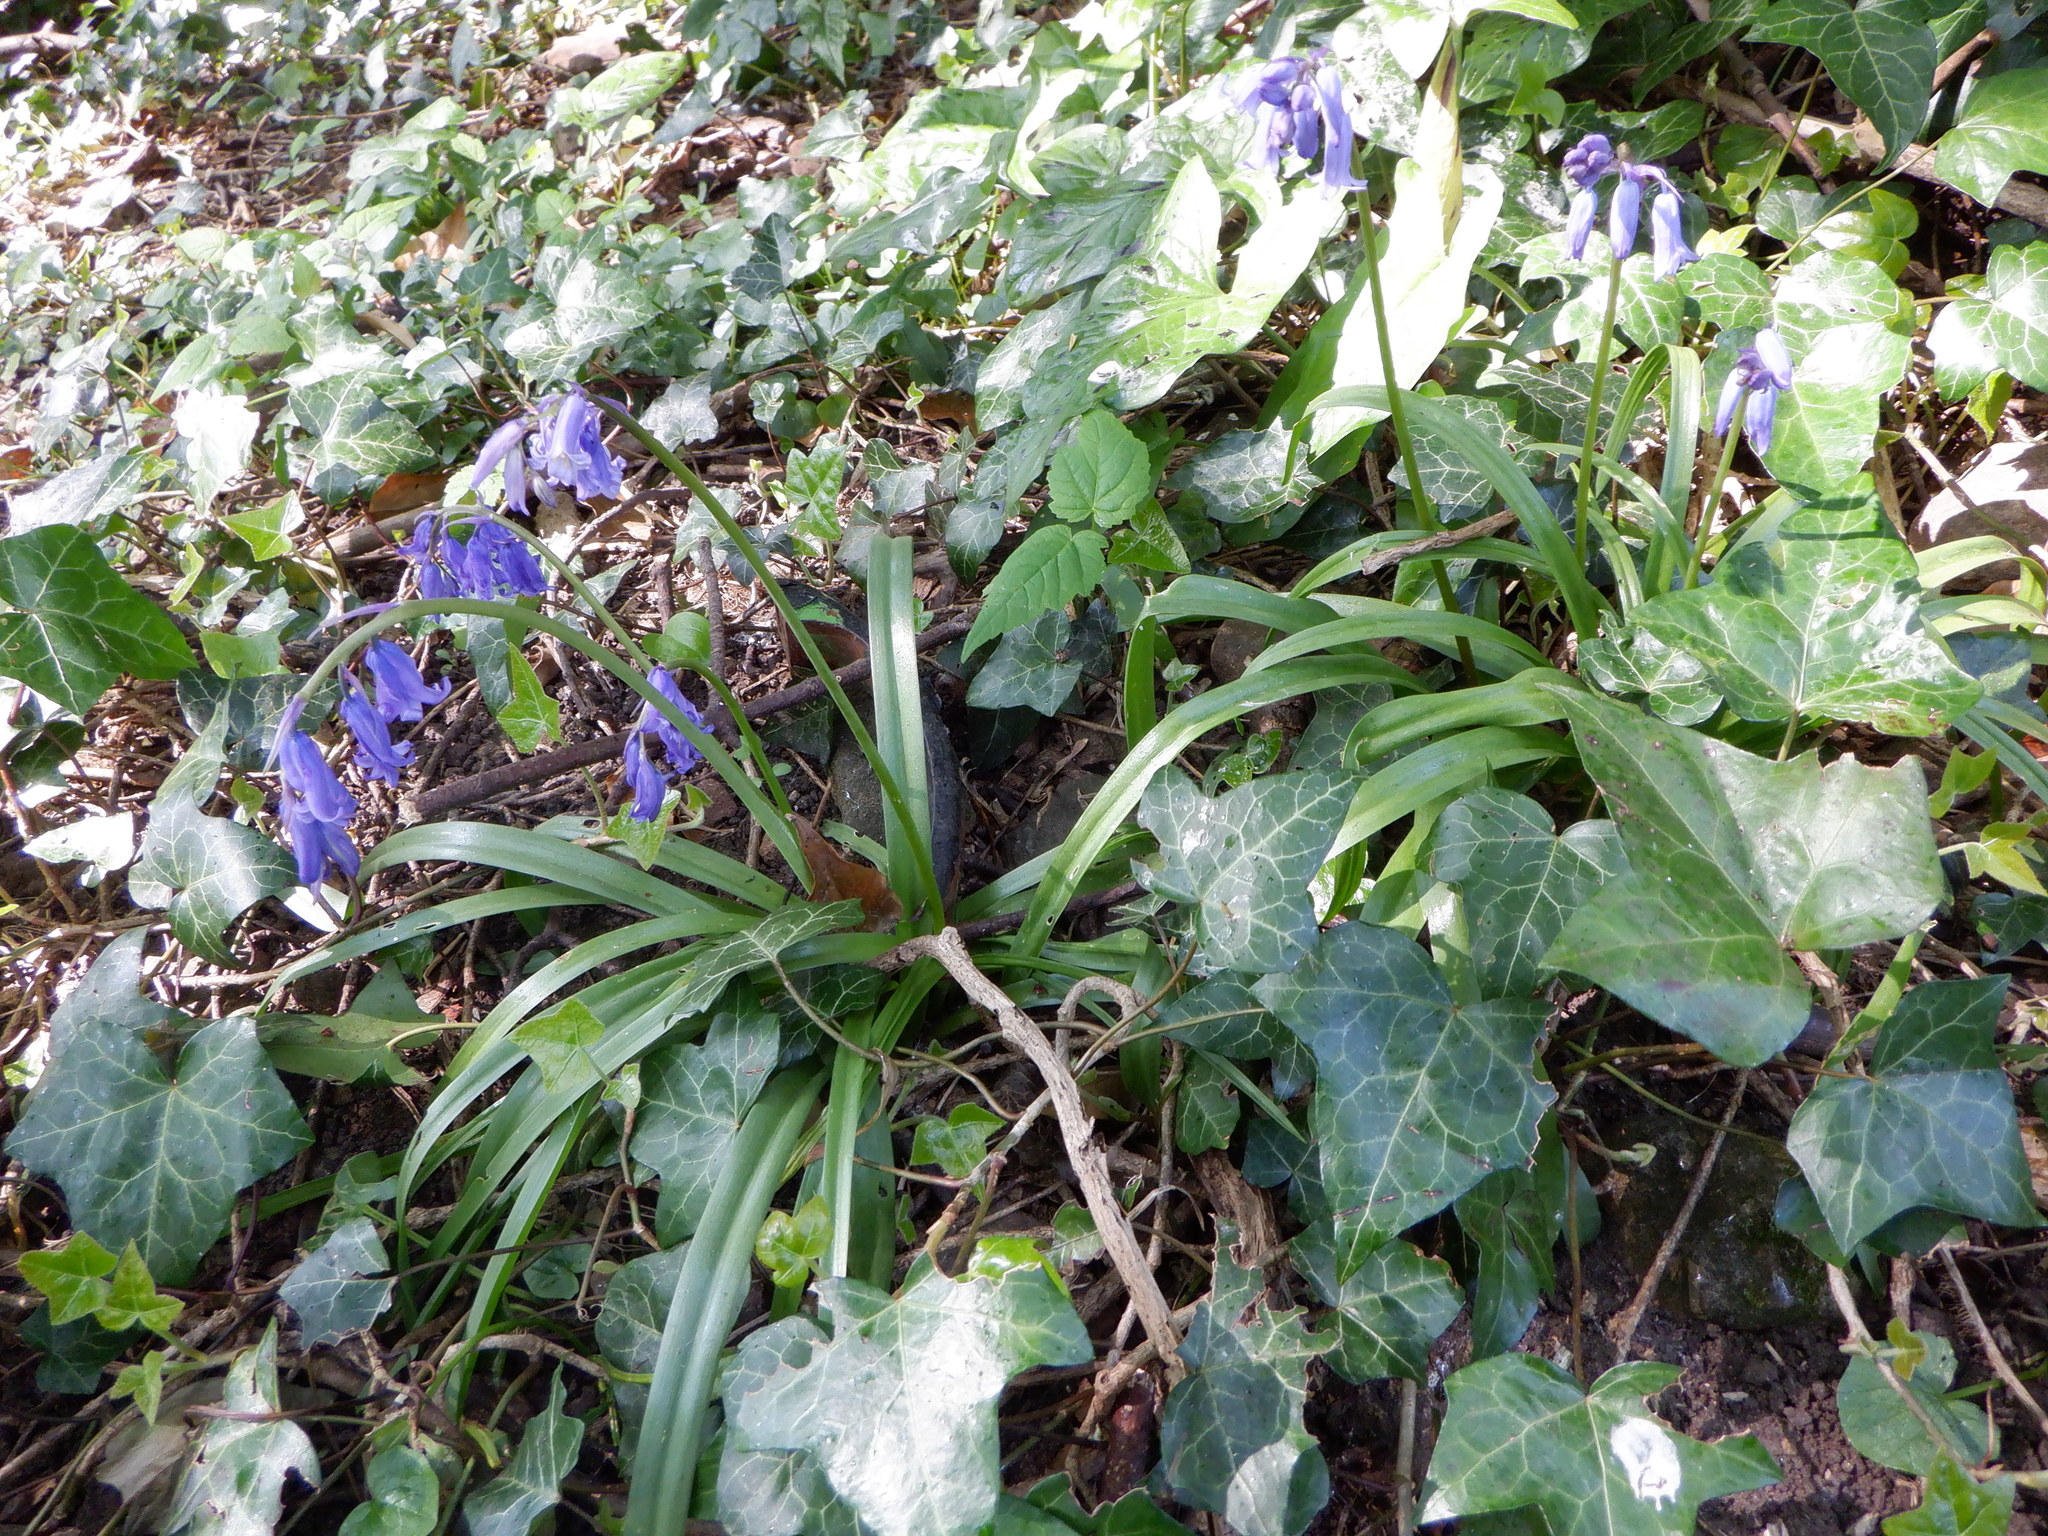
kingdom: Plantae
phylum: Tracheophyta
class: Liliopsida
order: Asparagales
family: Asparagaceae
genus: Hyacinthoides
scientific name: Hyacinthoides non-scripta
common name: Bluebell
